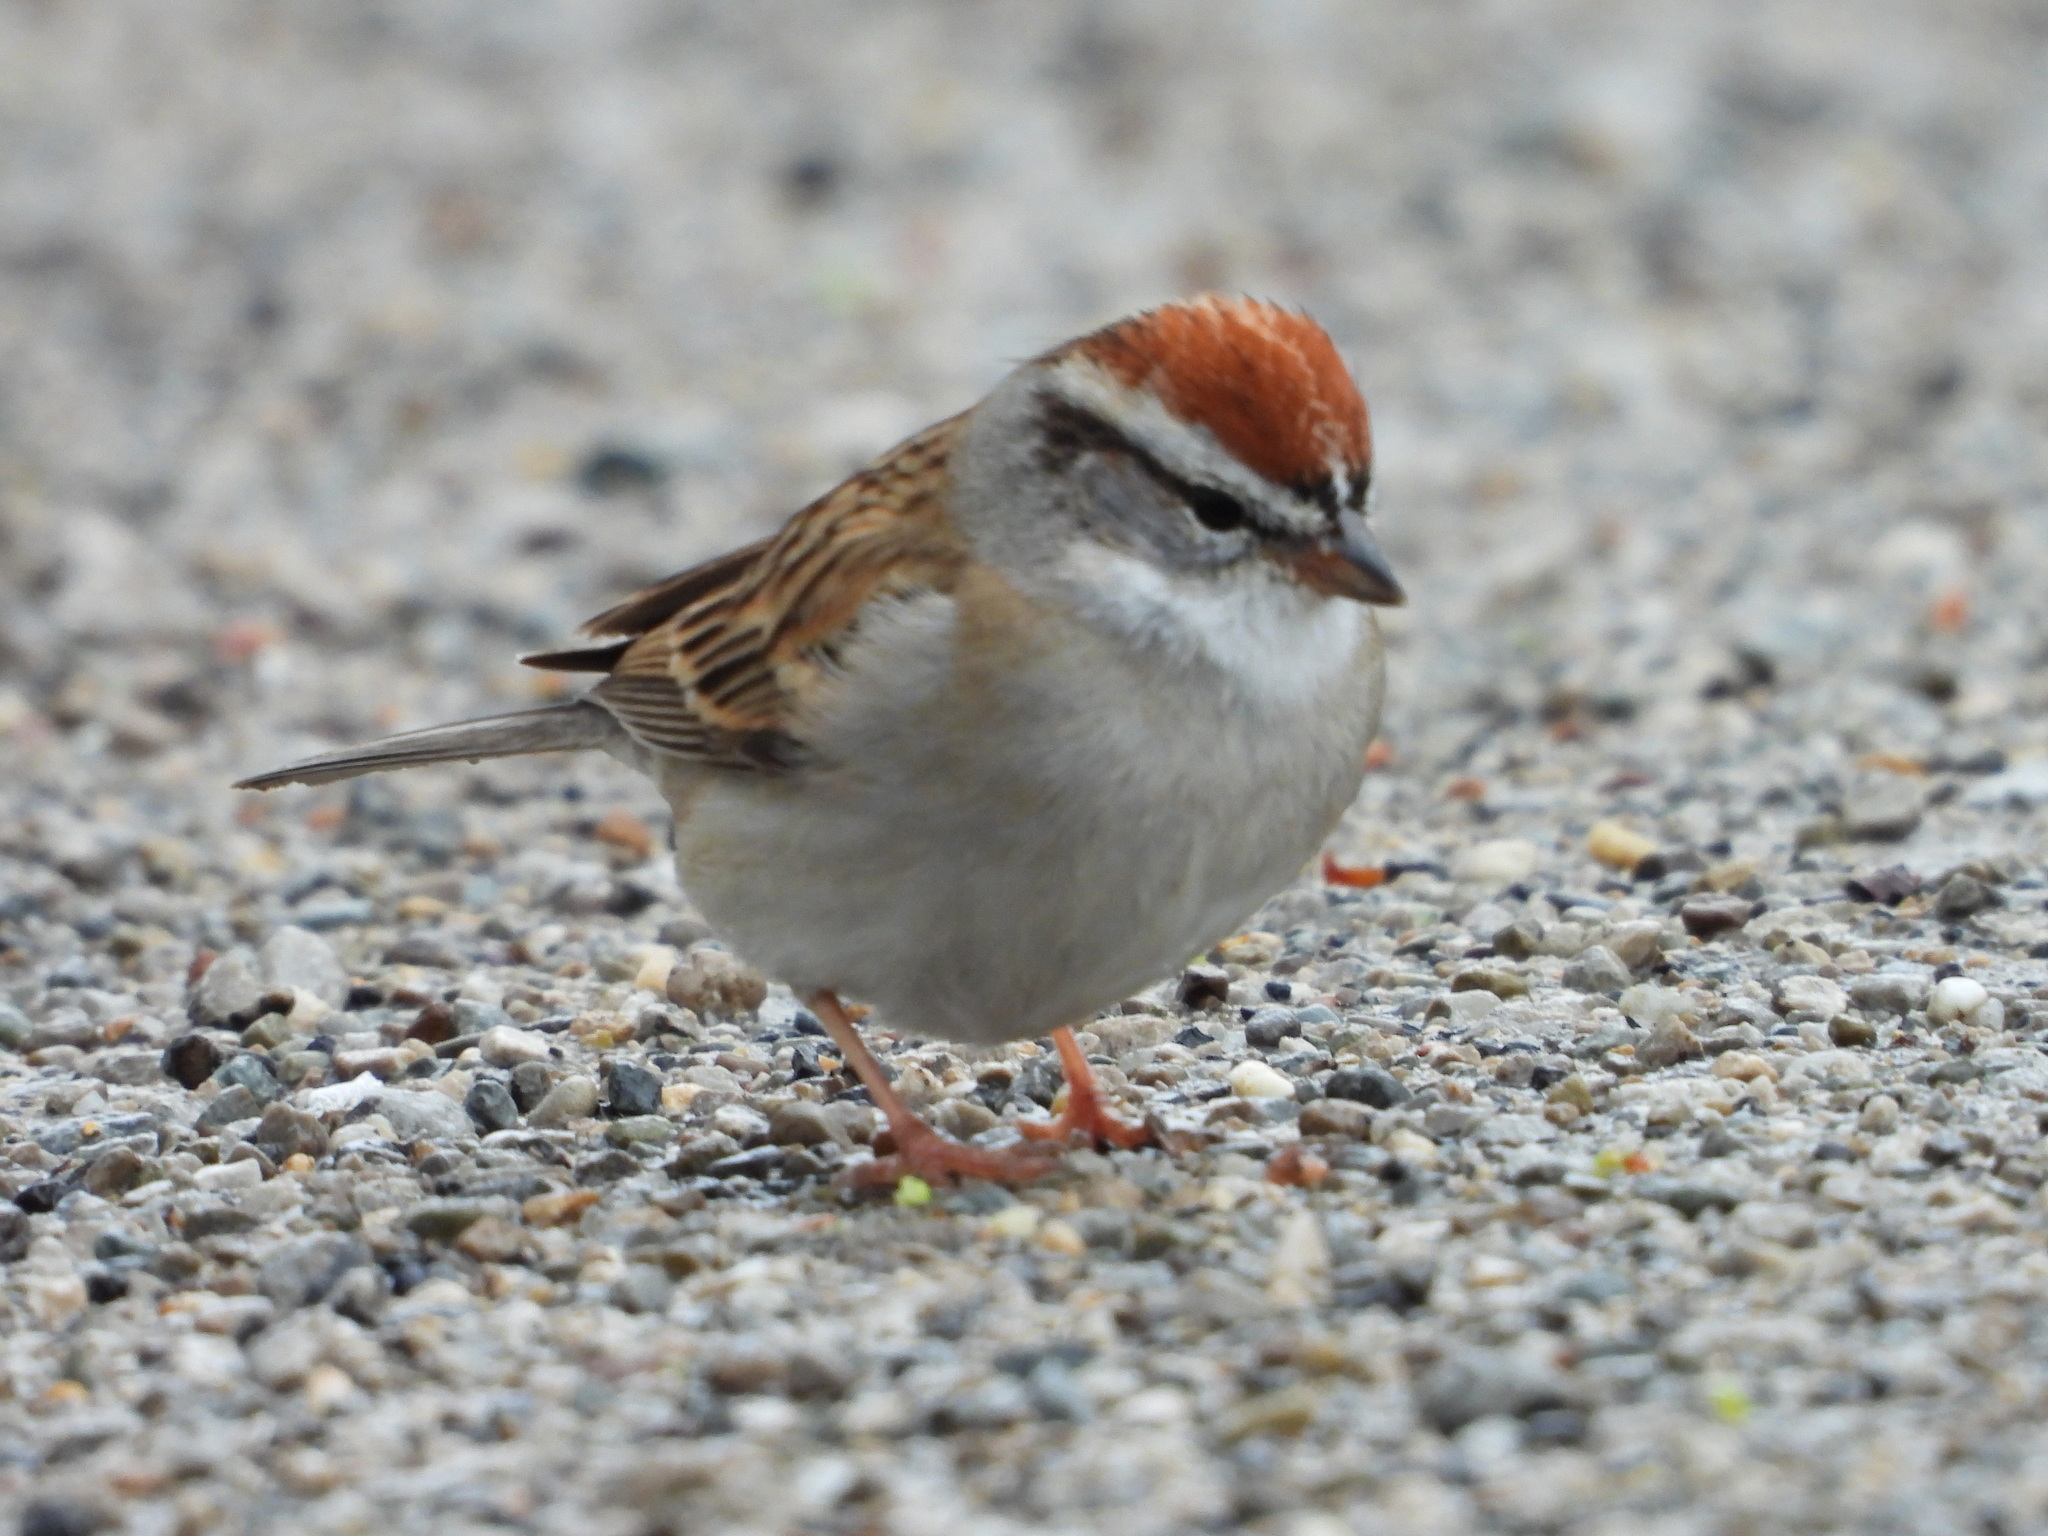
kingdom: Animalia
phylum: Chordata
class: Aves
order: Passeriformes
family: Passerellidae
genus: Spizella
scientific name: Spizella passerina
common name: Chipping sparrow
